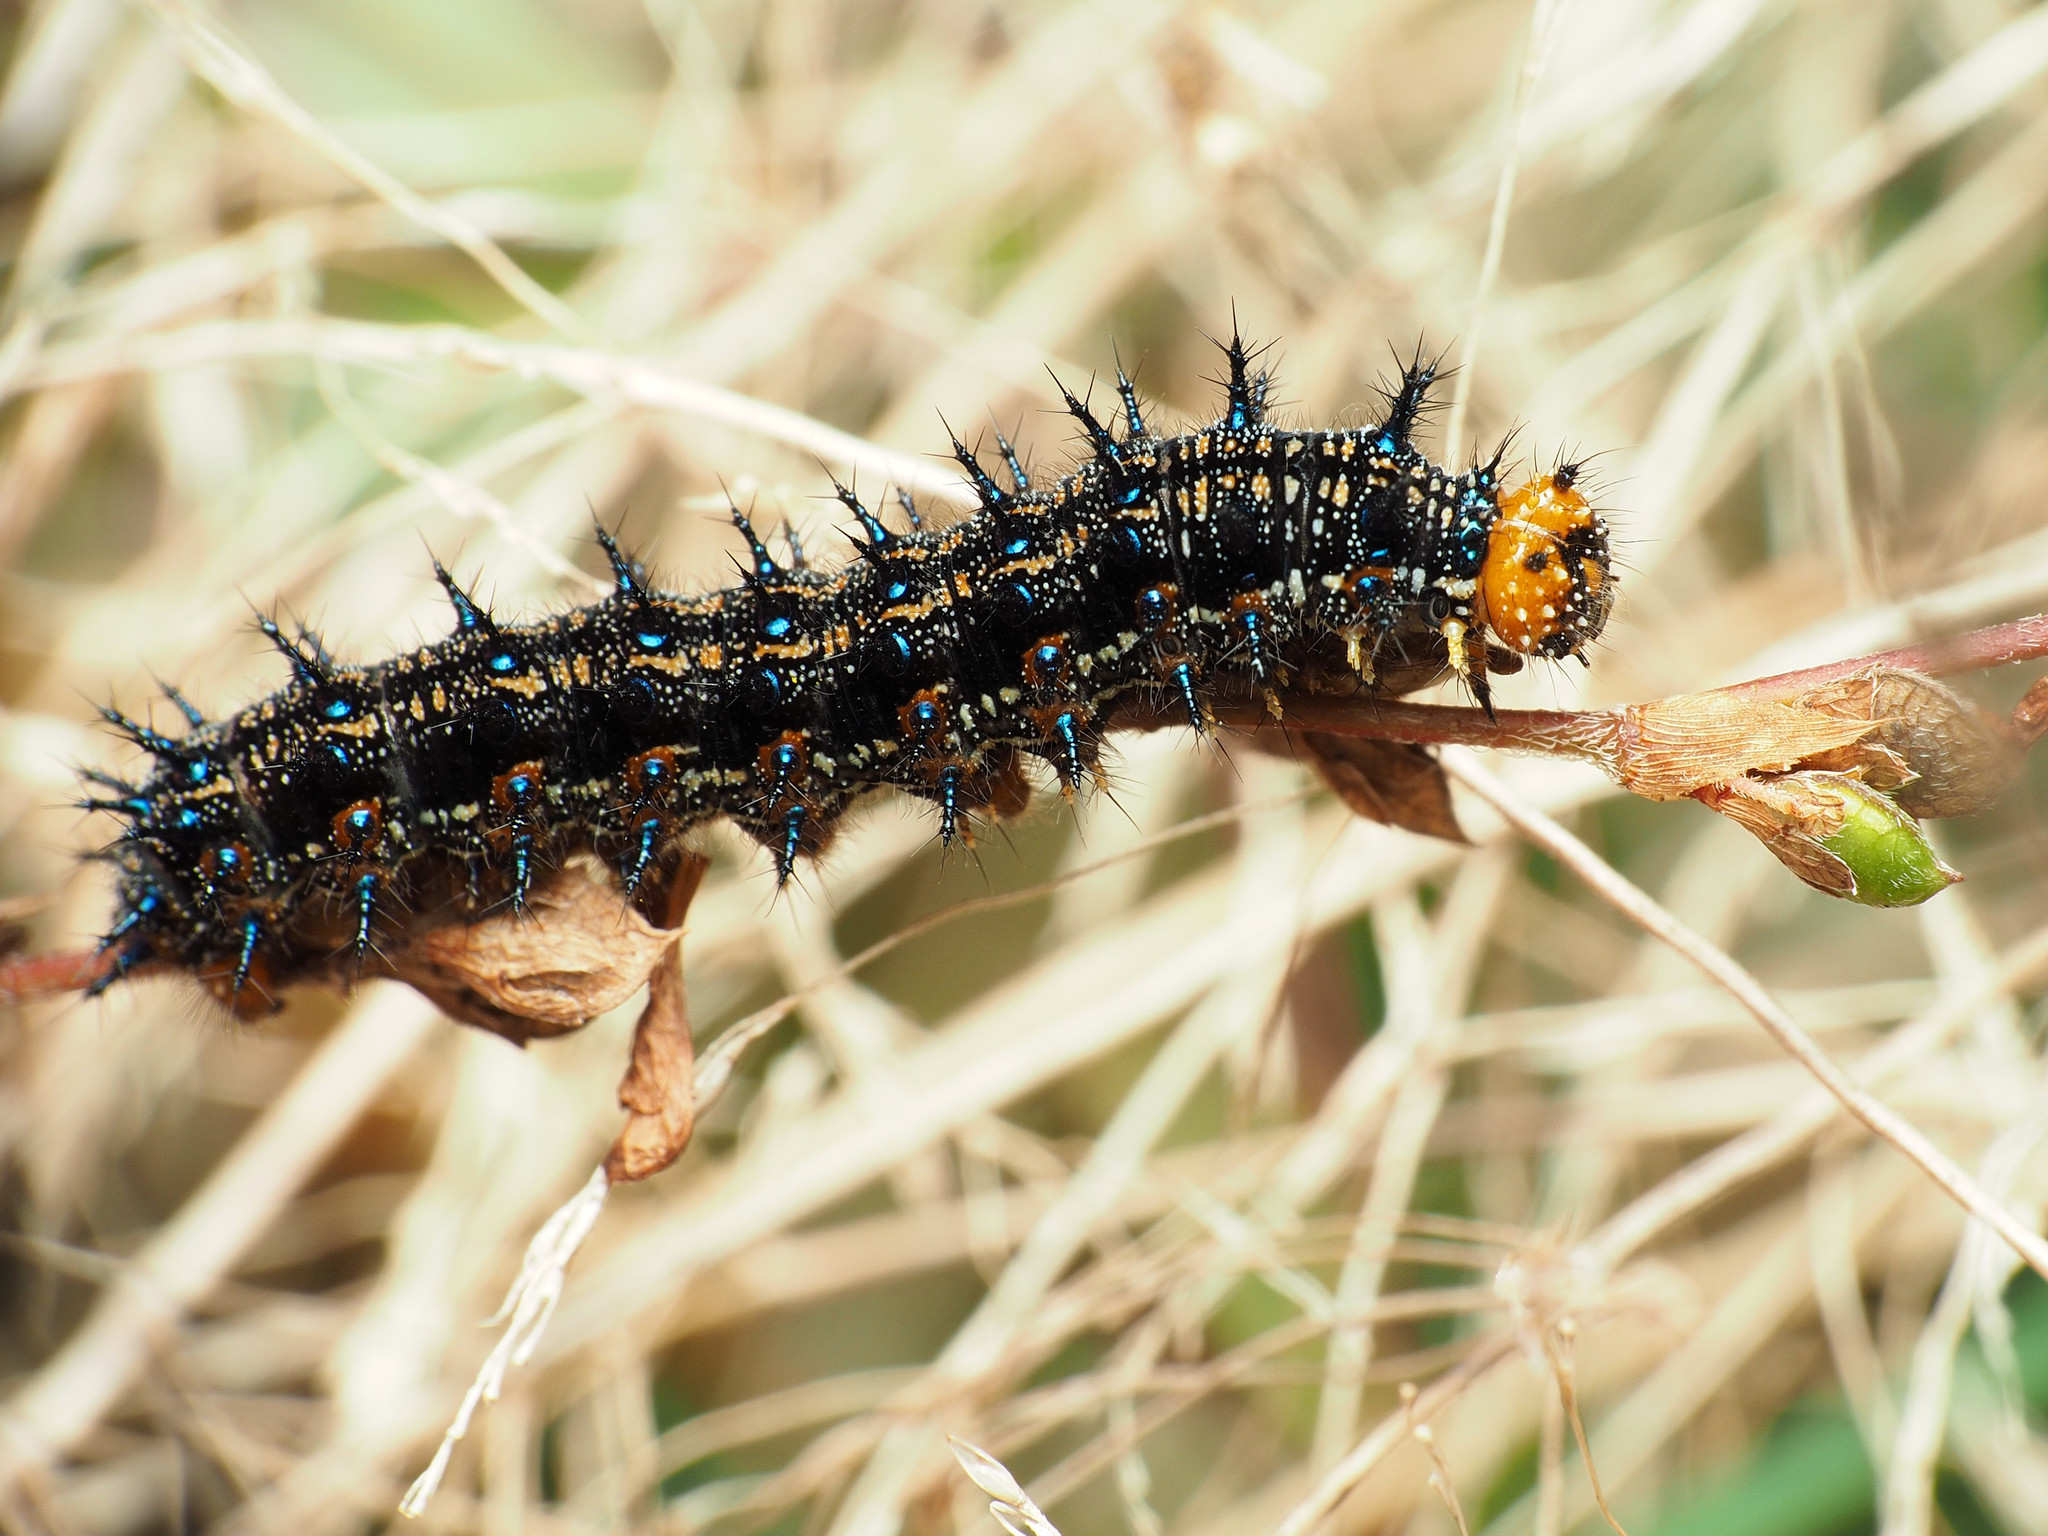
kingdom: Animalia
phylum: Arthropoda
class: Insecta
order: Lepidoptera
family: Nymphalidae
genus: Junonia
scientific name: Junonia coenia
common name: Common buckeye
